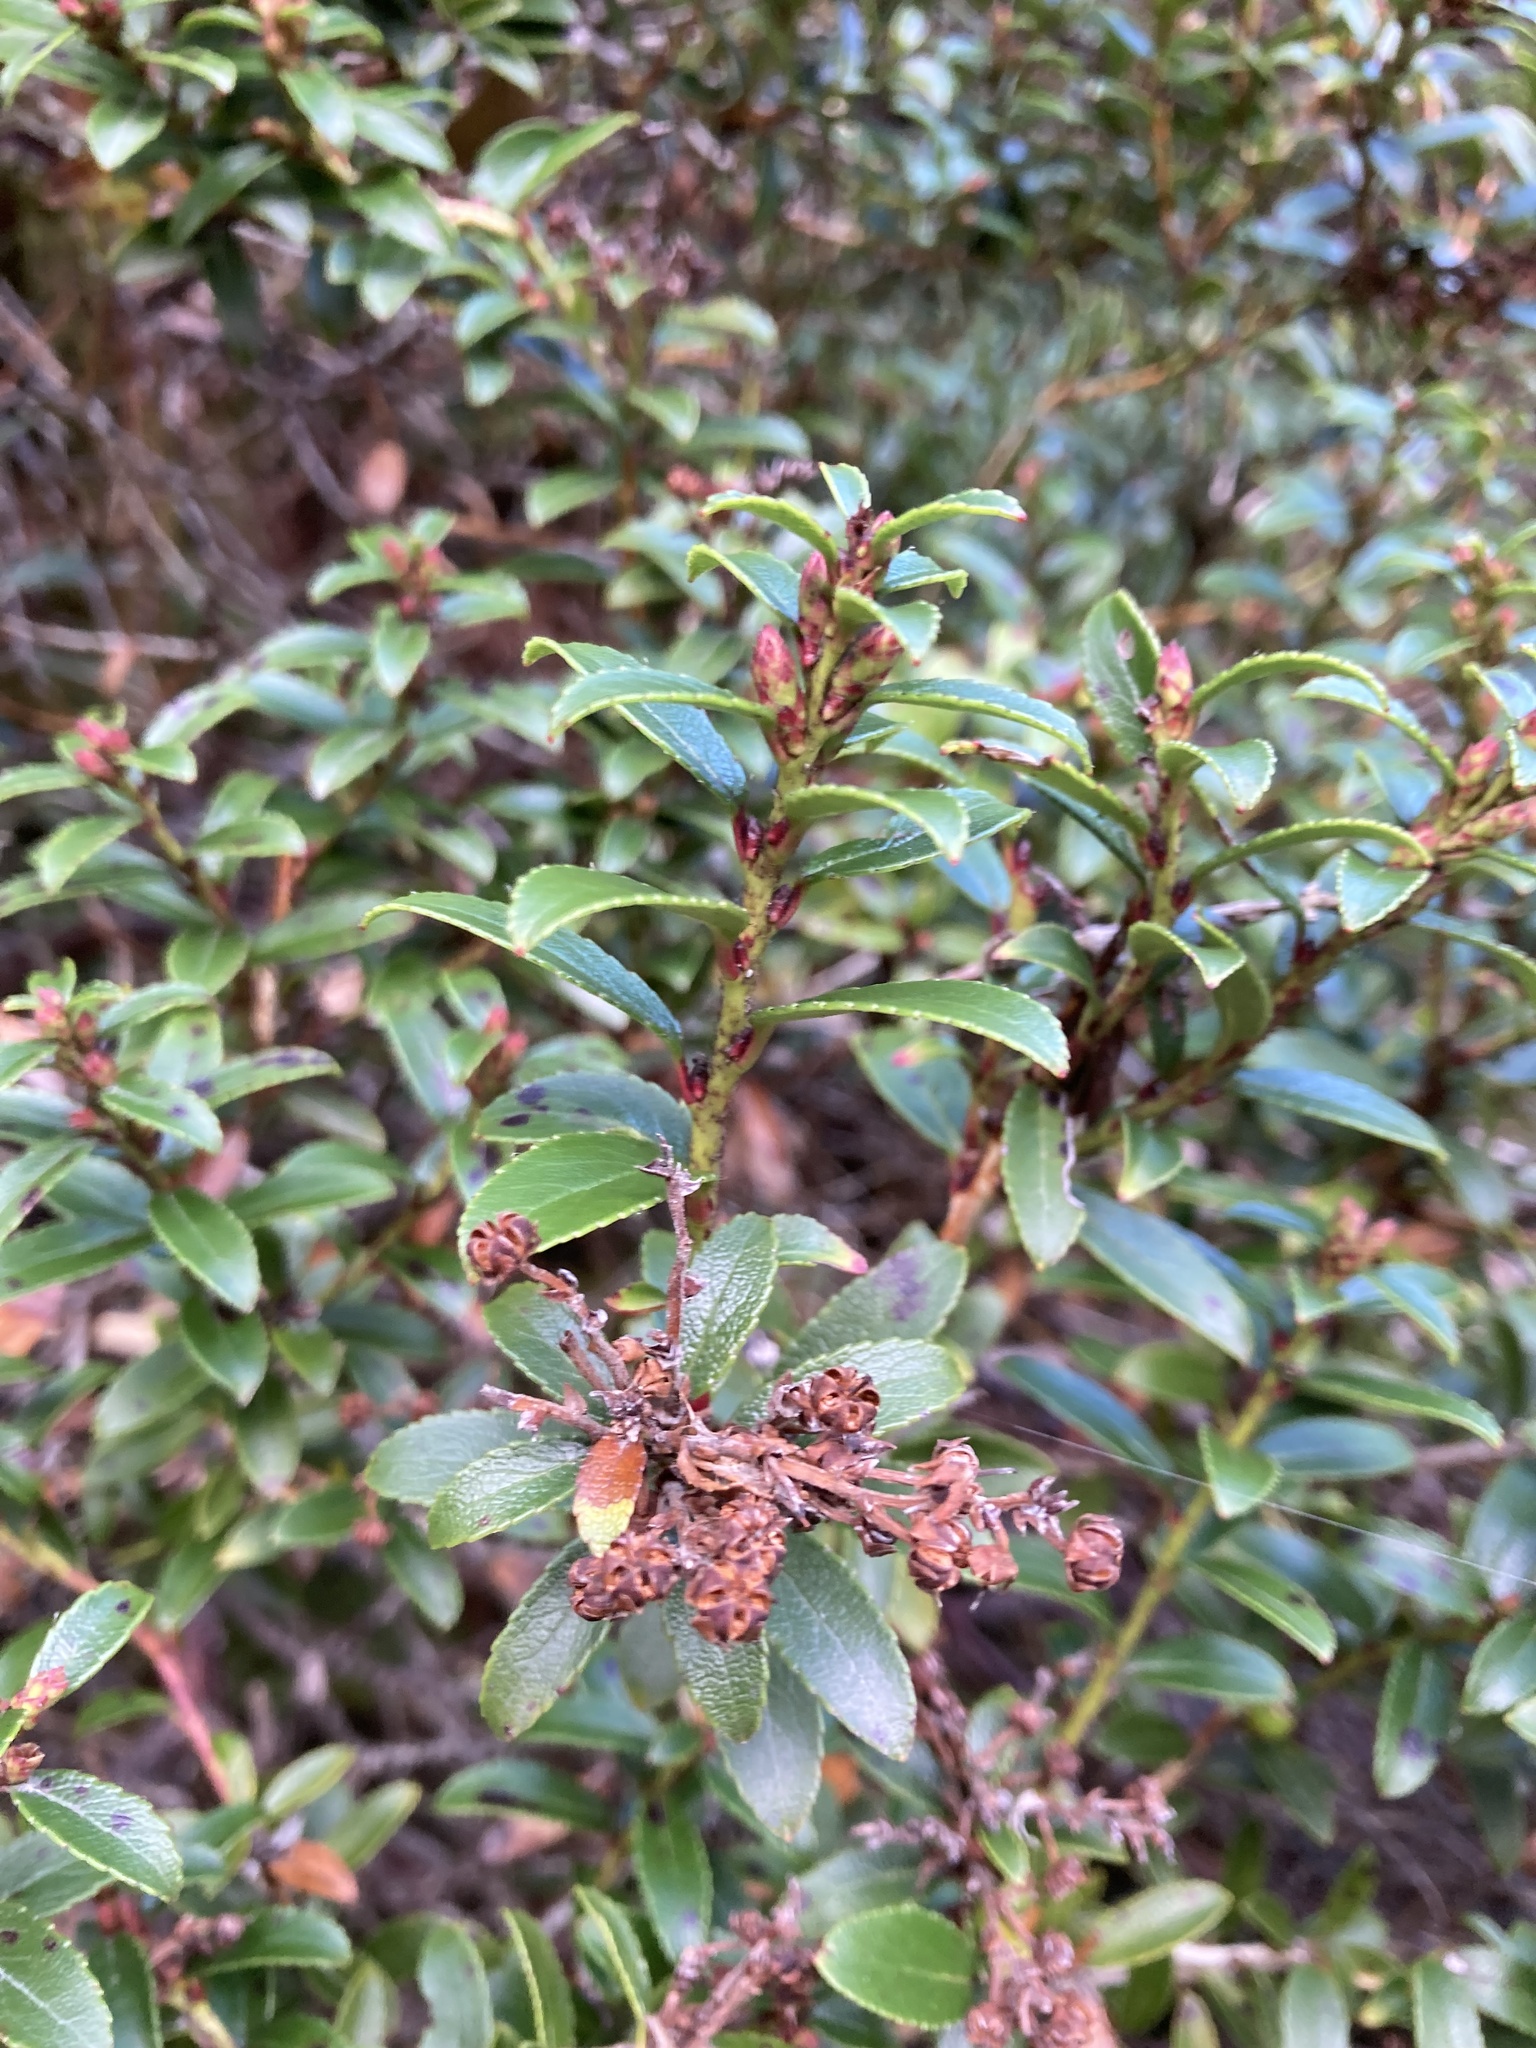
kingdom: Plantae
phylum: Tracheophyta
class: Magnoliopsida
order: Ericales
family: Ericaceae
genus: Gaultheria
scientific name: Gaultheria crassa
